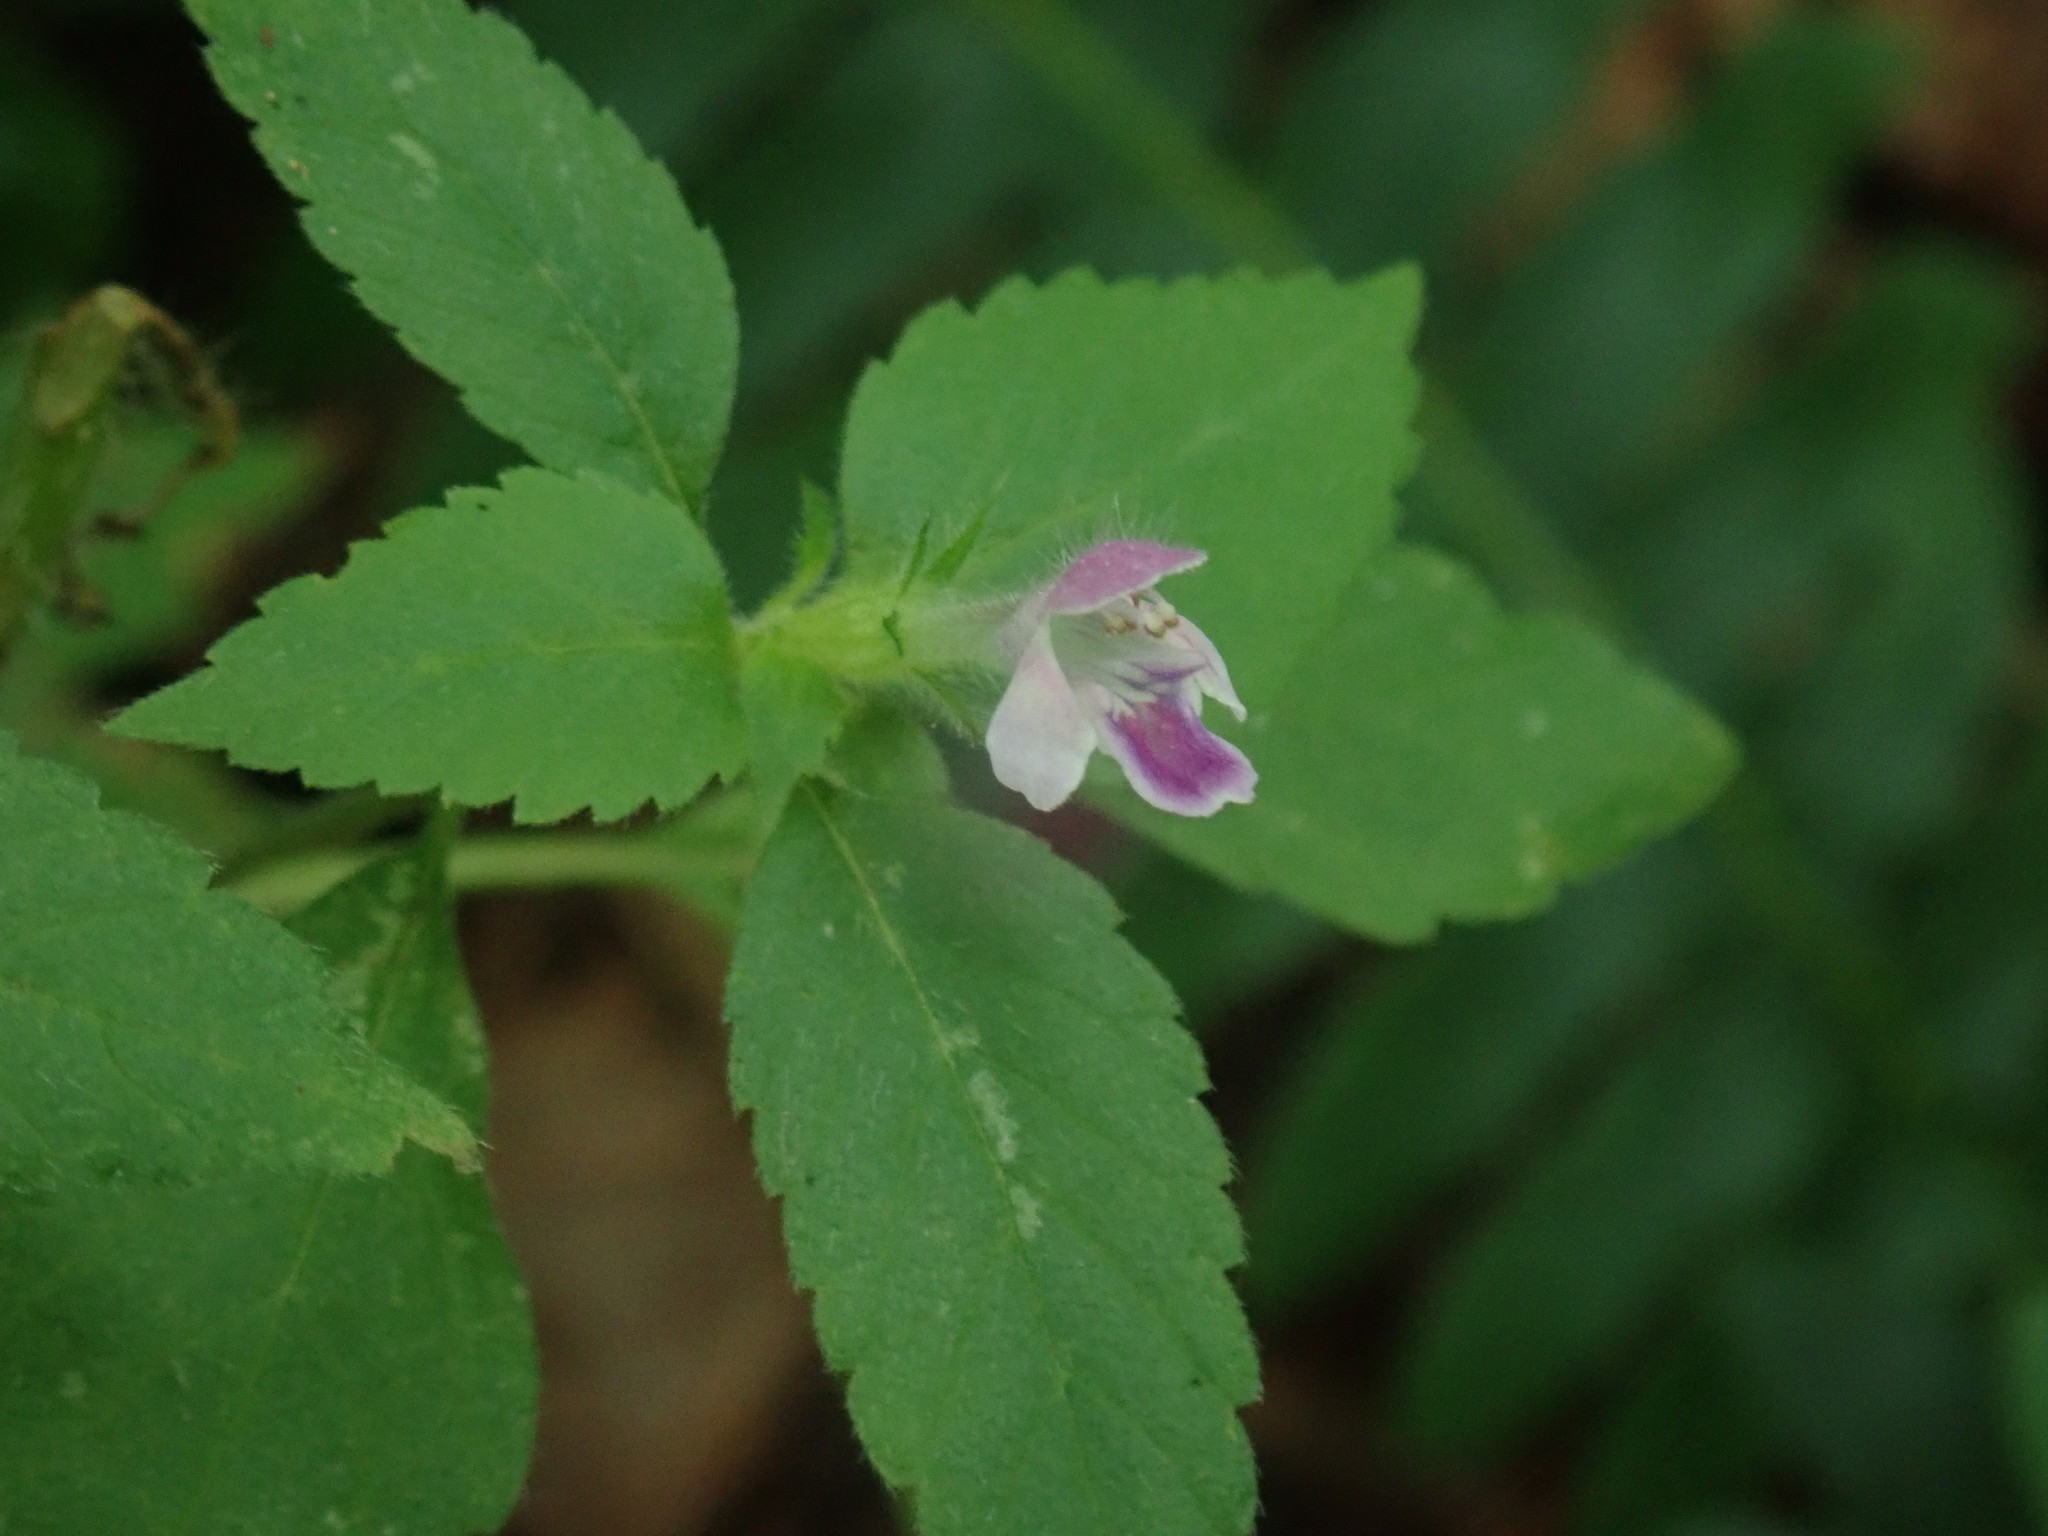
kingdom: Plantae
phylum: Tracheophyta
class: Magnoliopsida
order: Lamiales
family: Lamiaceae
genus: Galeopsis
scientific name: Galeopsis bifida
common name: Bifid hemp-nettle
